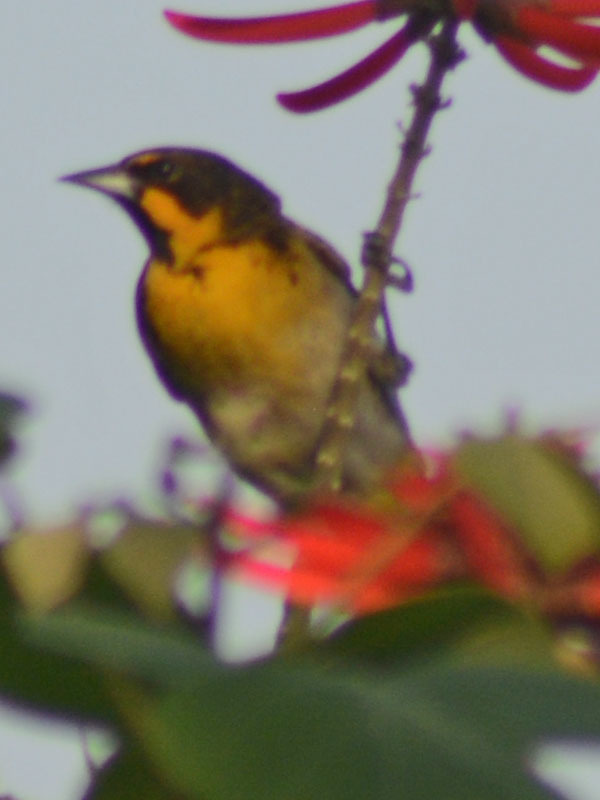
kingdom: Animalia
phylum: Chordata
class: Aves
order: Passeriformes
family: Icteridae
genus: Icterus
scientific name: Icterus abeillei
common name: Black-backed oriole
